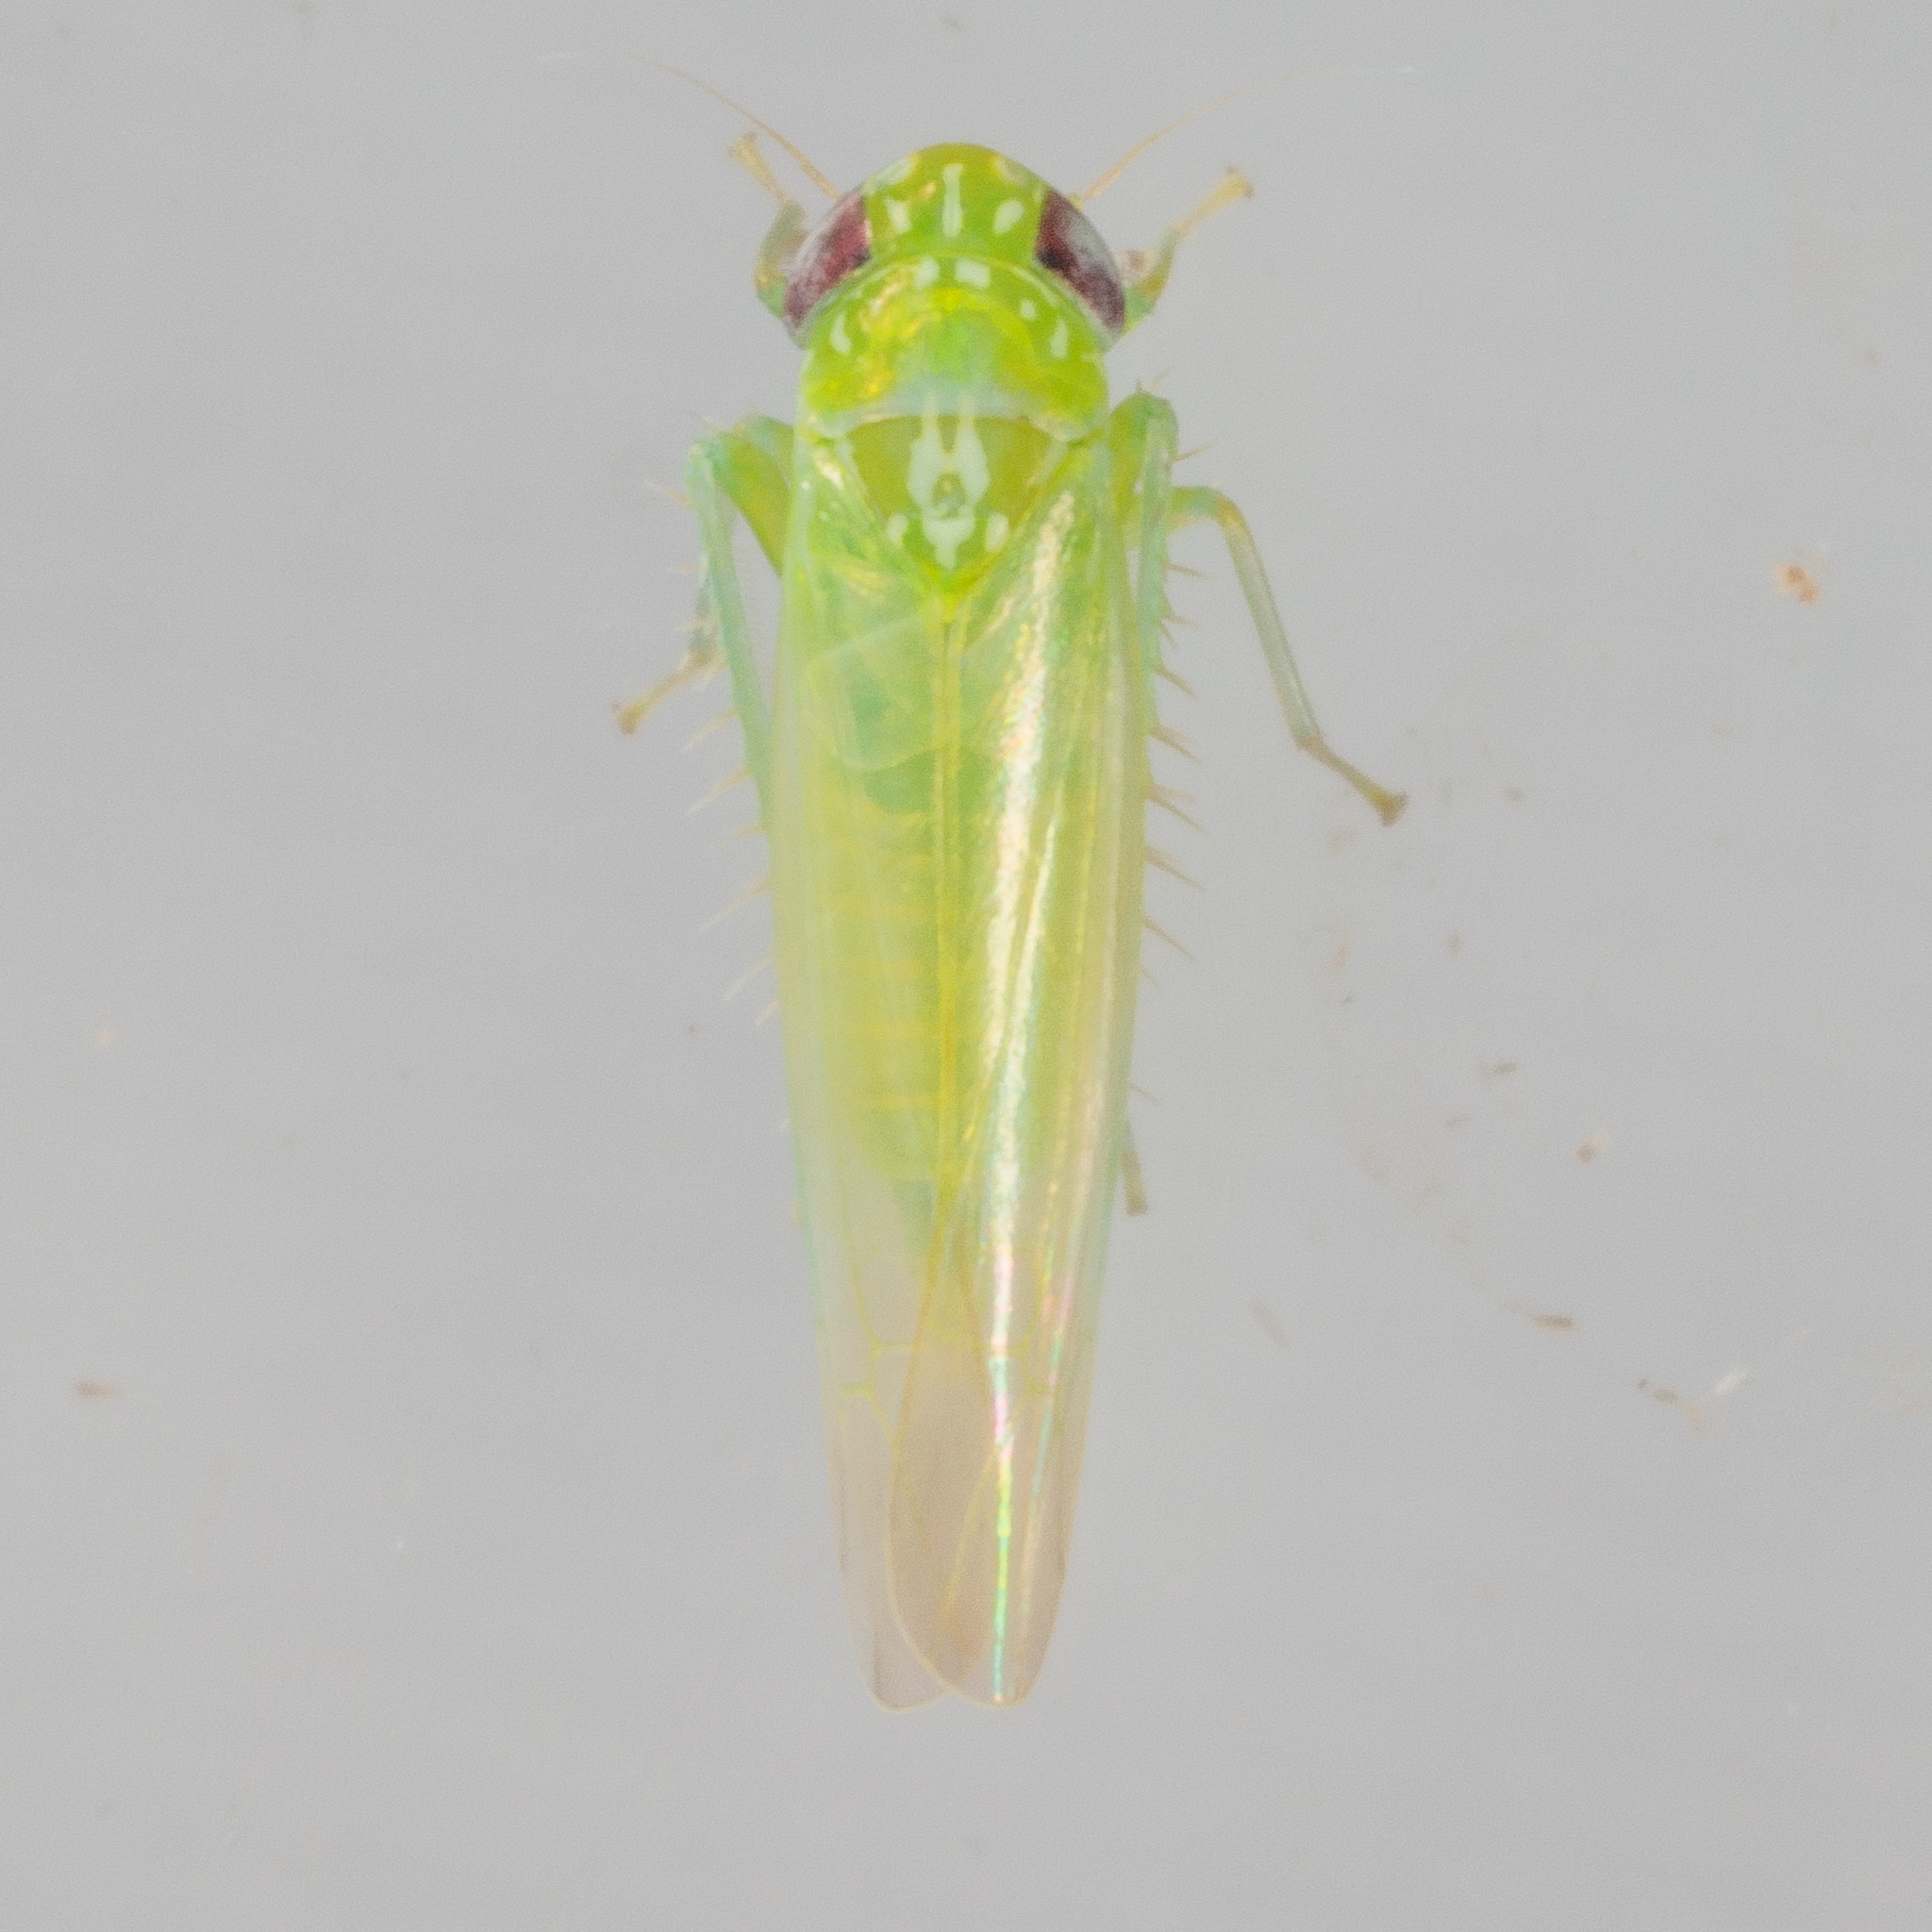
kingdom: Animalia
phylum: Arthropoda
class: Insecta
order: Hemiptera
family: Cicadellidae
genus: Empoasca
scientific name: Empoasca fabae
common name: Potato leafhopper
